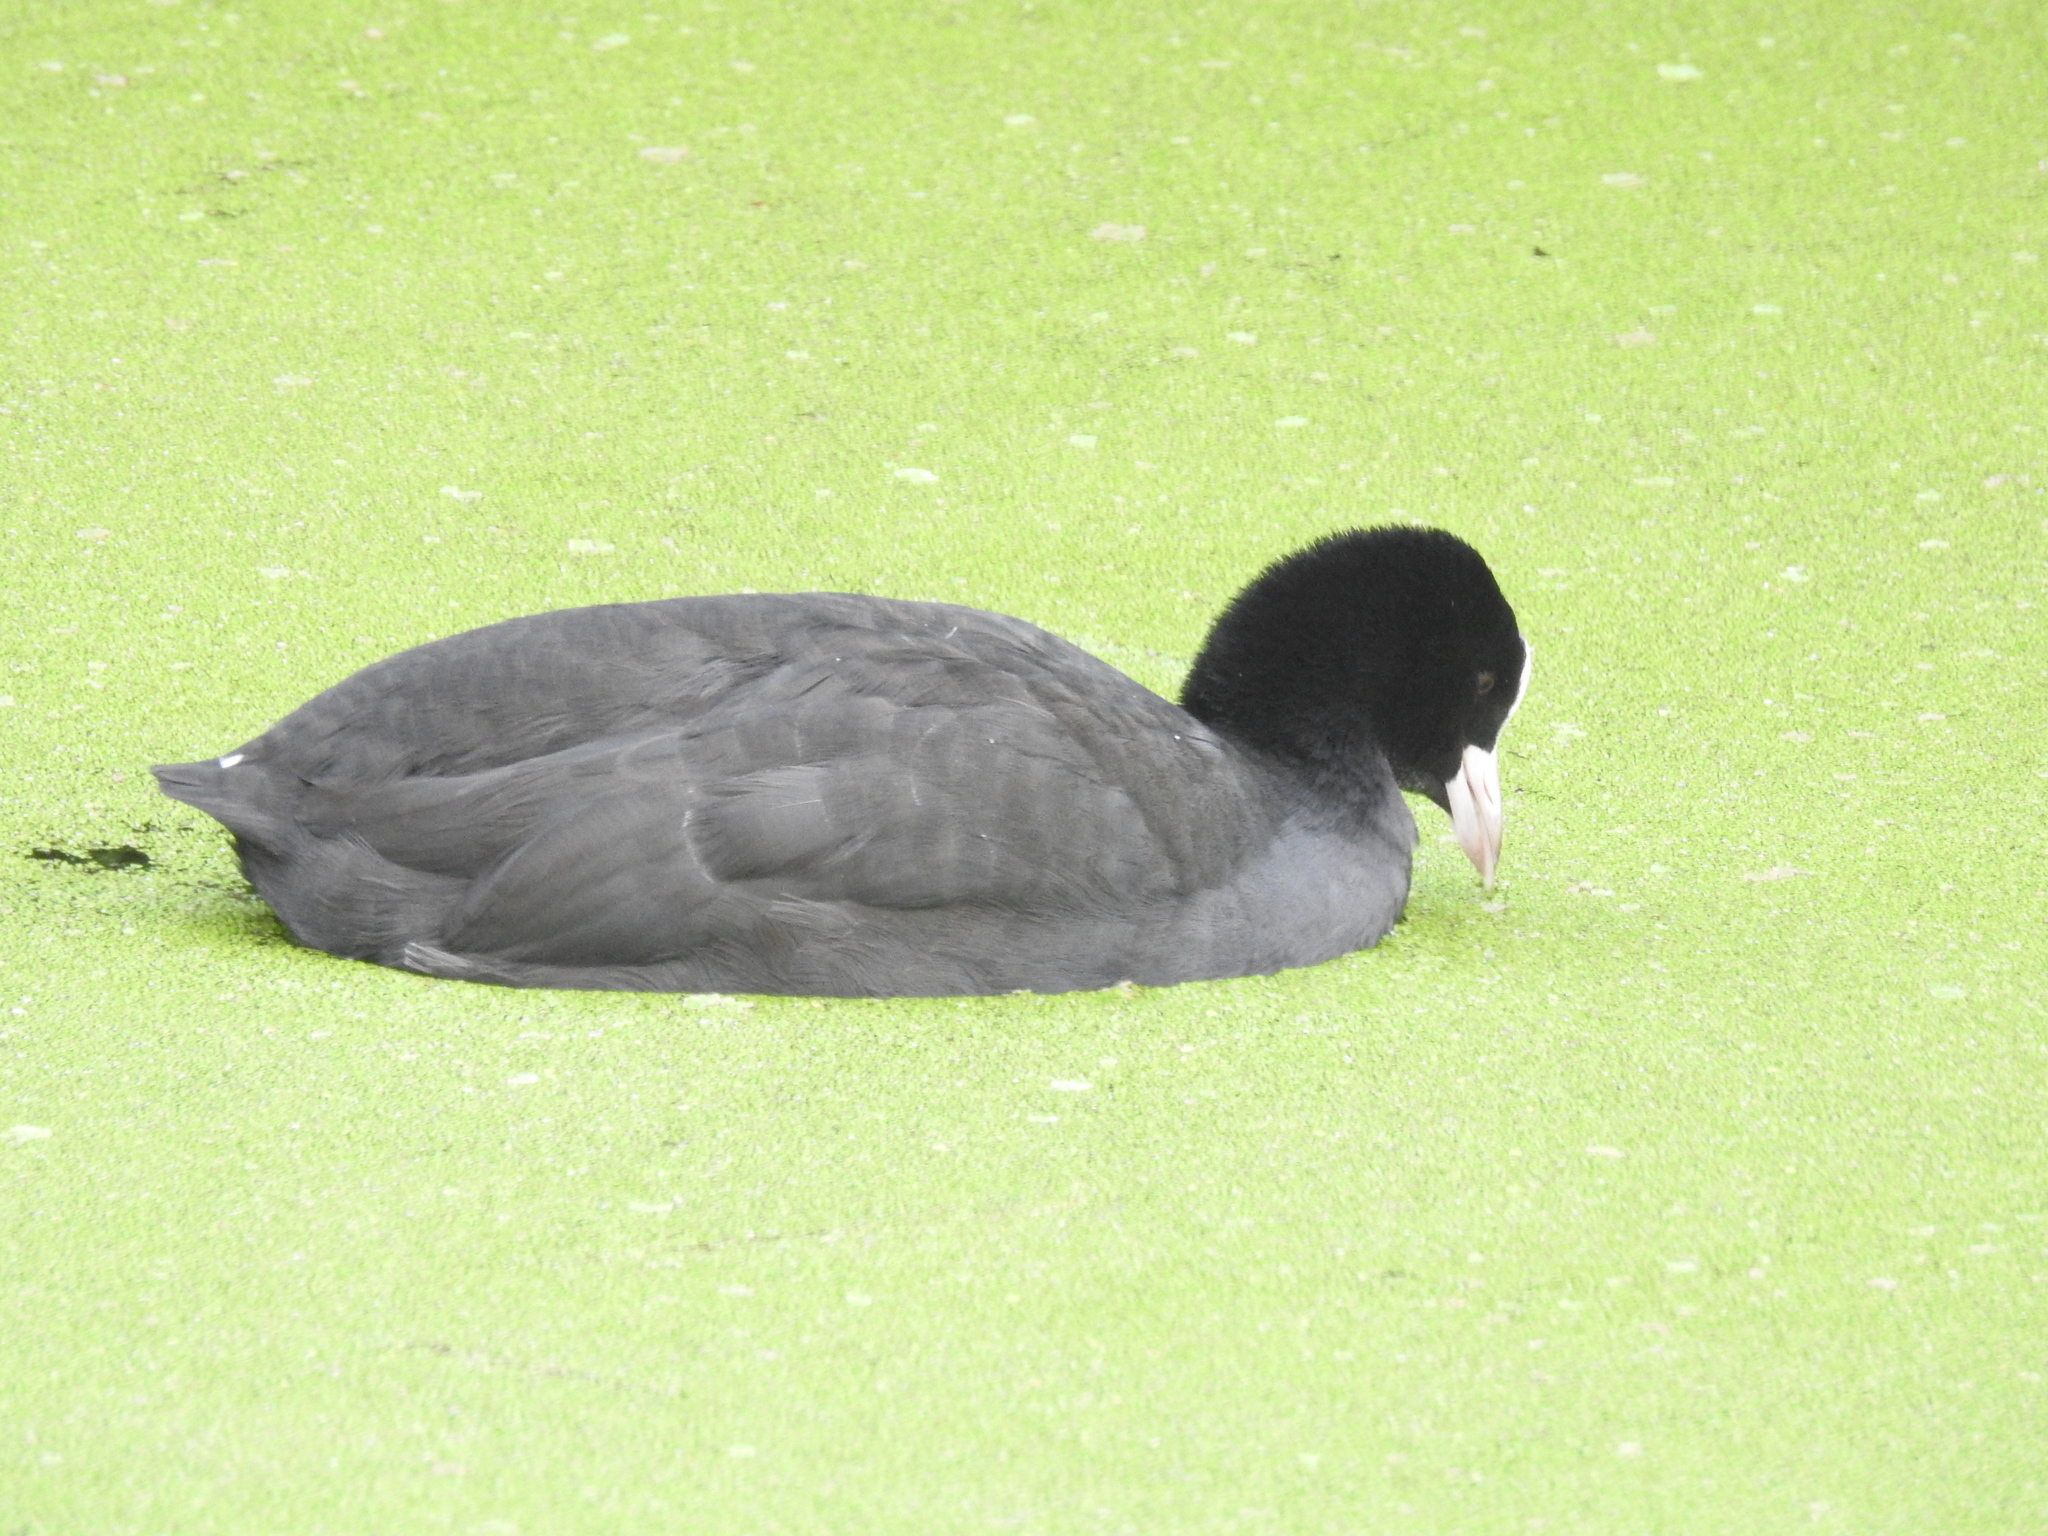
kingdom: Animalia
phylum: Chordata
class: Aves
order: Gruiformes
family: Rallidae
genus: Fulica
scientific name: Fulica atra
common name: Eurasian coot
